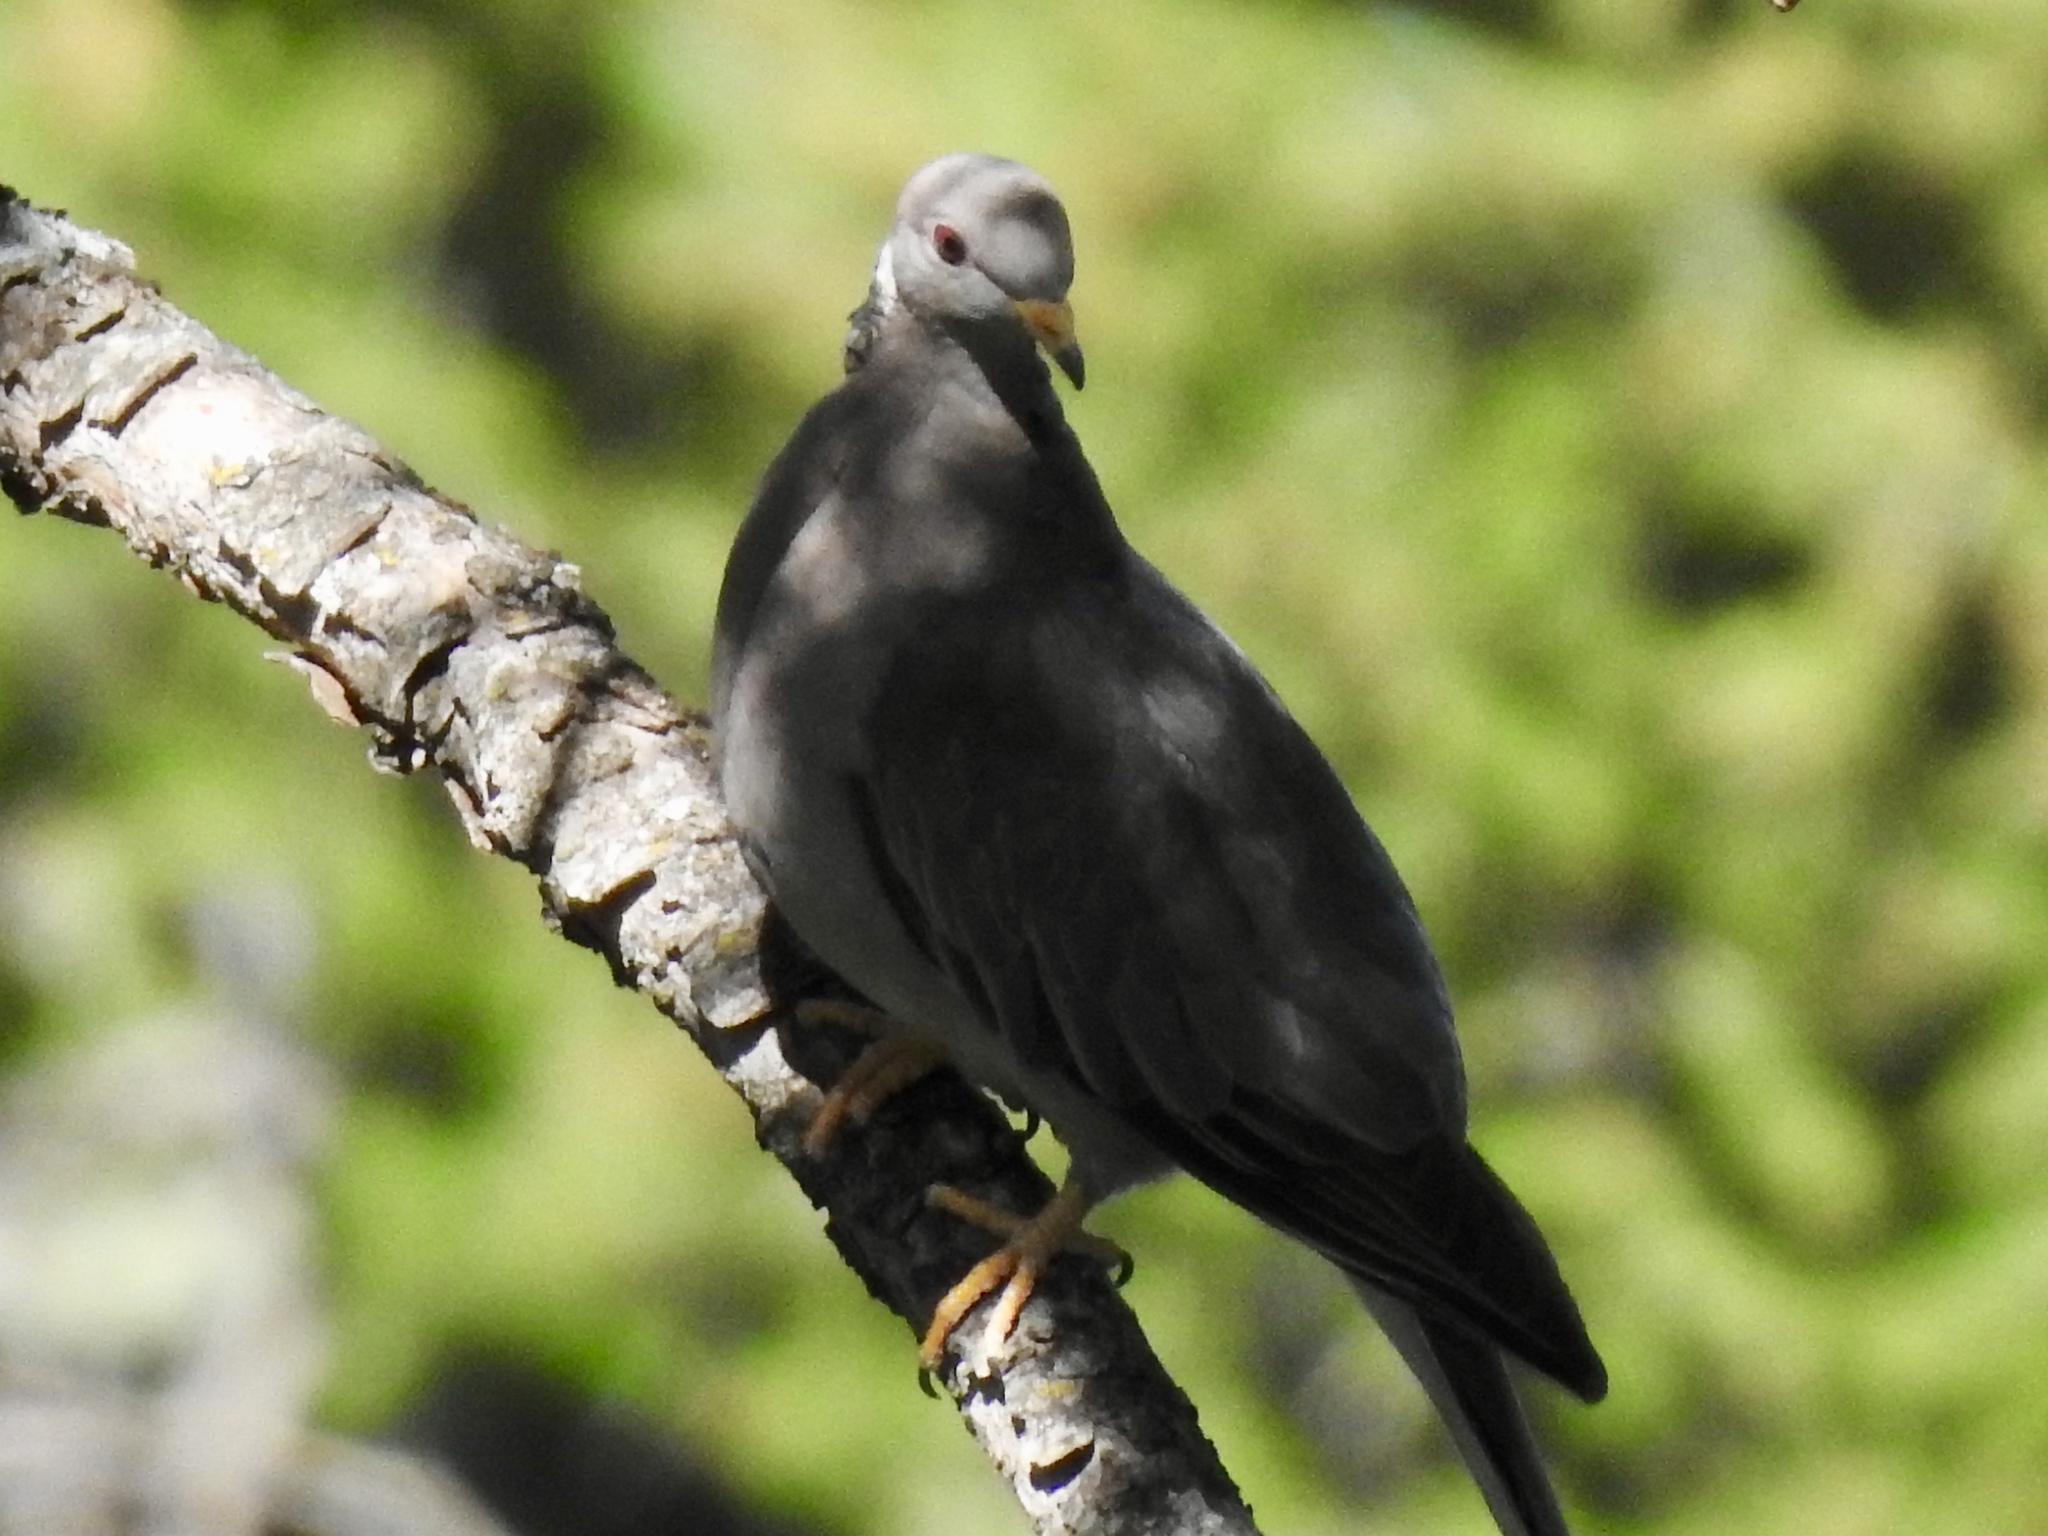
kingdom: Animalia
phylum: Chordata
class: Aves
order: Columbiformes
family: Columbidae
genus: Patagioenas
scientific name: Patagioenas fasciata
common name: Band-tailed pigeon
